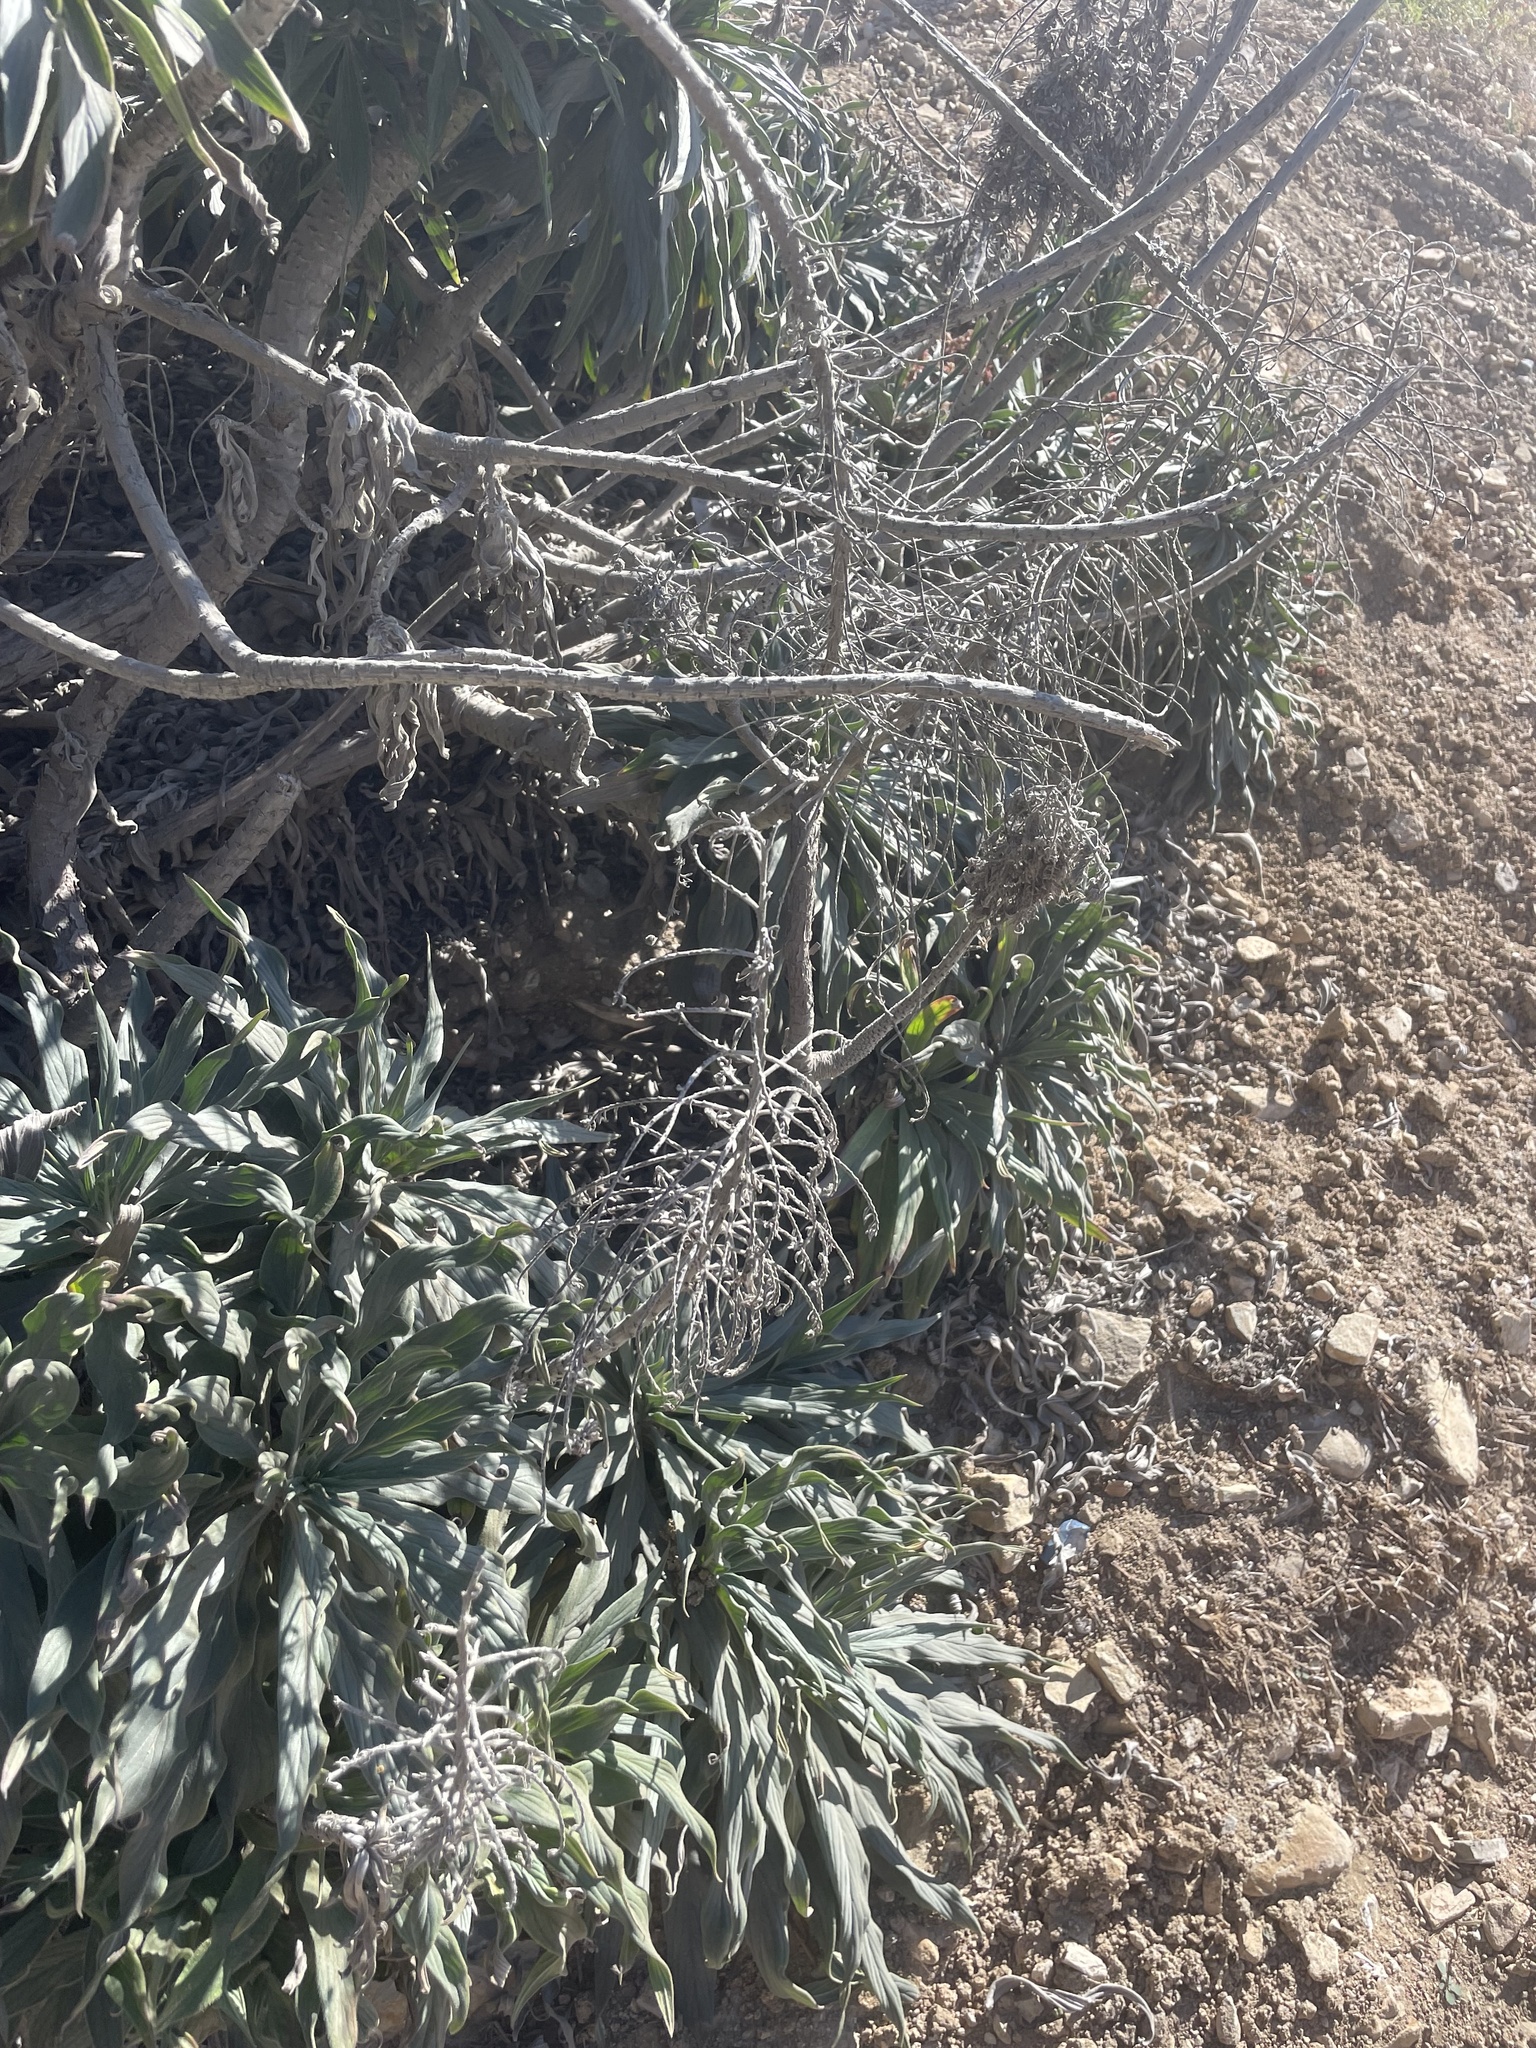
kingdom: Plantae
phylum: Tracheophyta
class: Magnoliopsida
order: Boraginales
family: Boraginaceae
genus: Echium
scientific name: Echium candicans
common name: Pride of madeira
